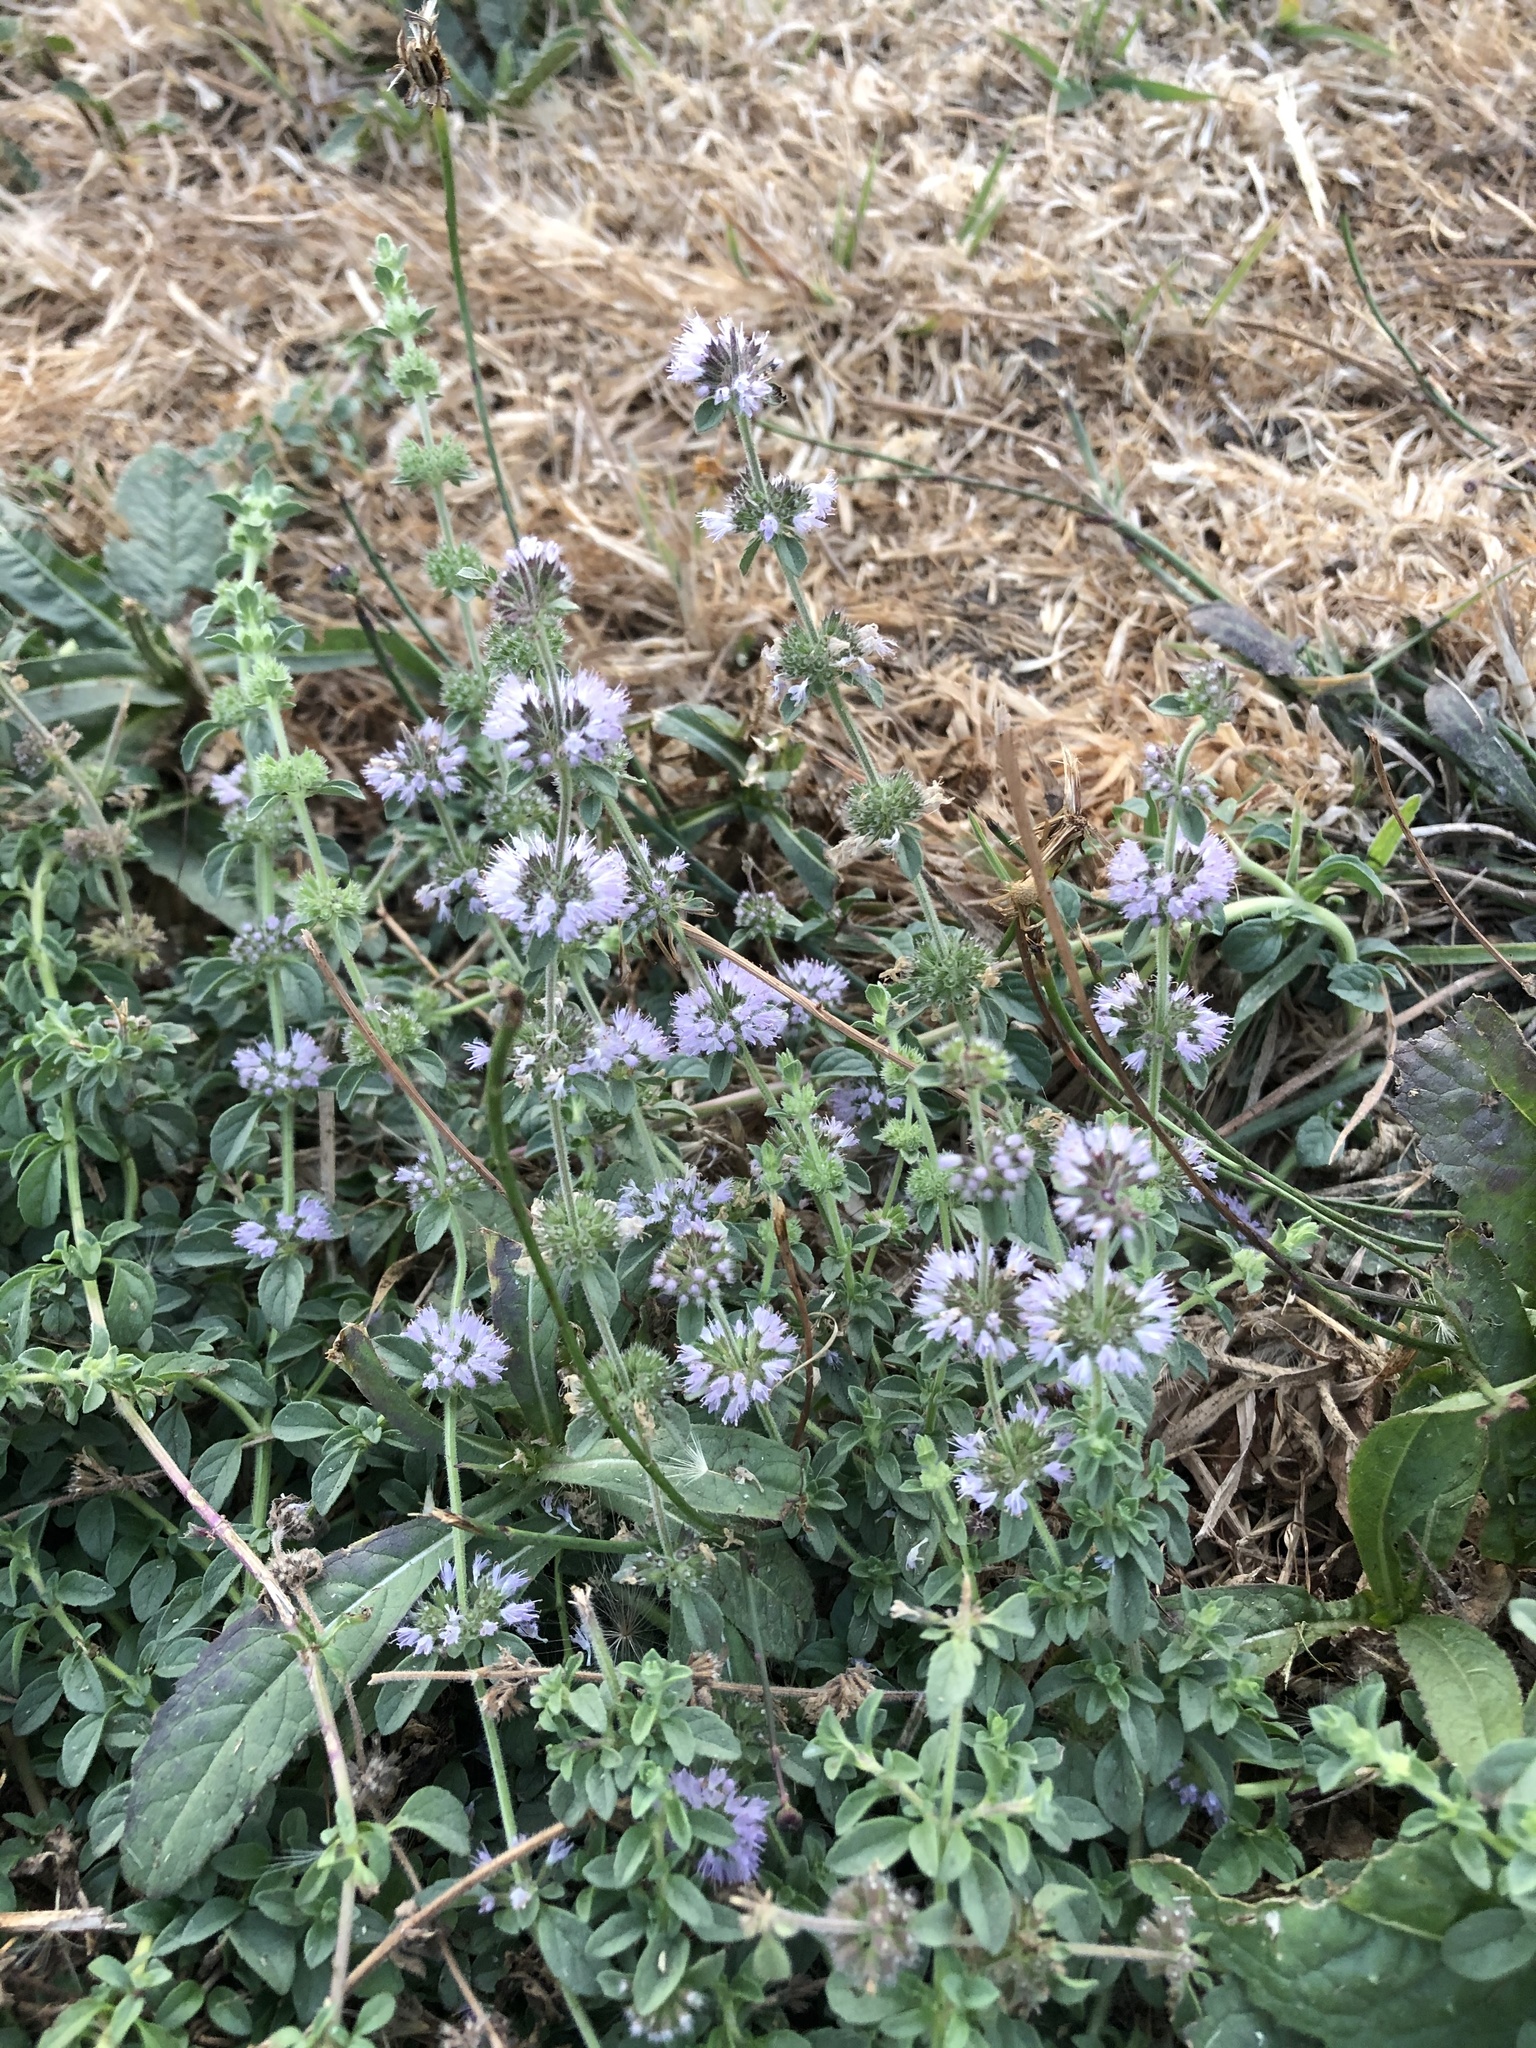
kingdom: Plantae
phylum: Tracheophyta
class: Magnoliopsida
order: Lamiales
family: Lamiaceae
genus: Mentha
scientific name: Mentha pulegium
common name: Pennyroyal
